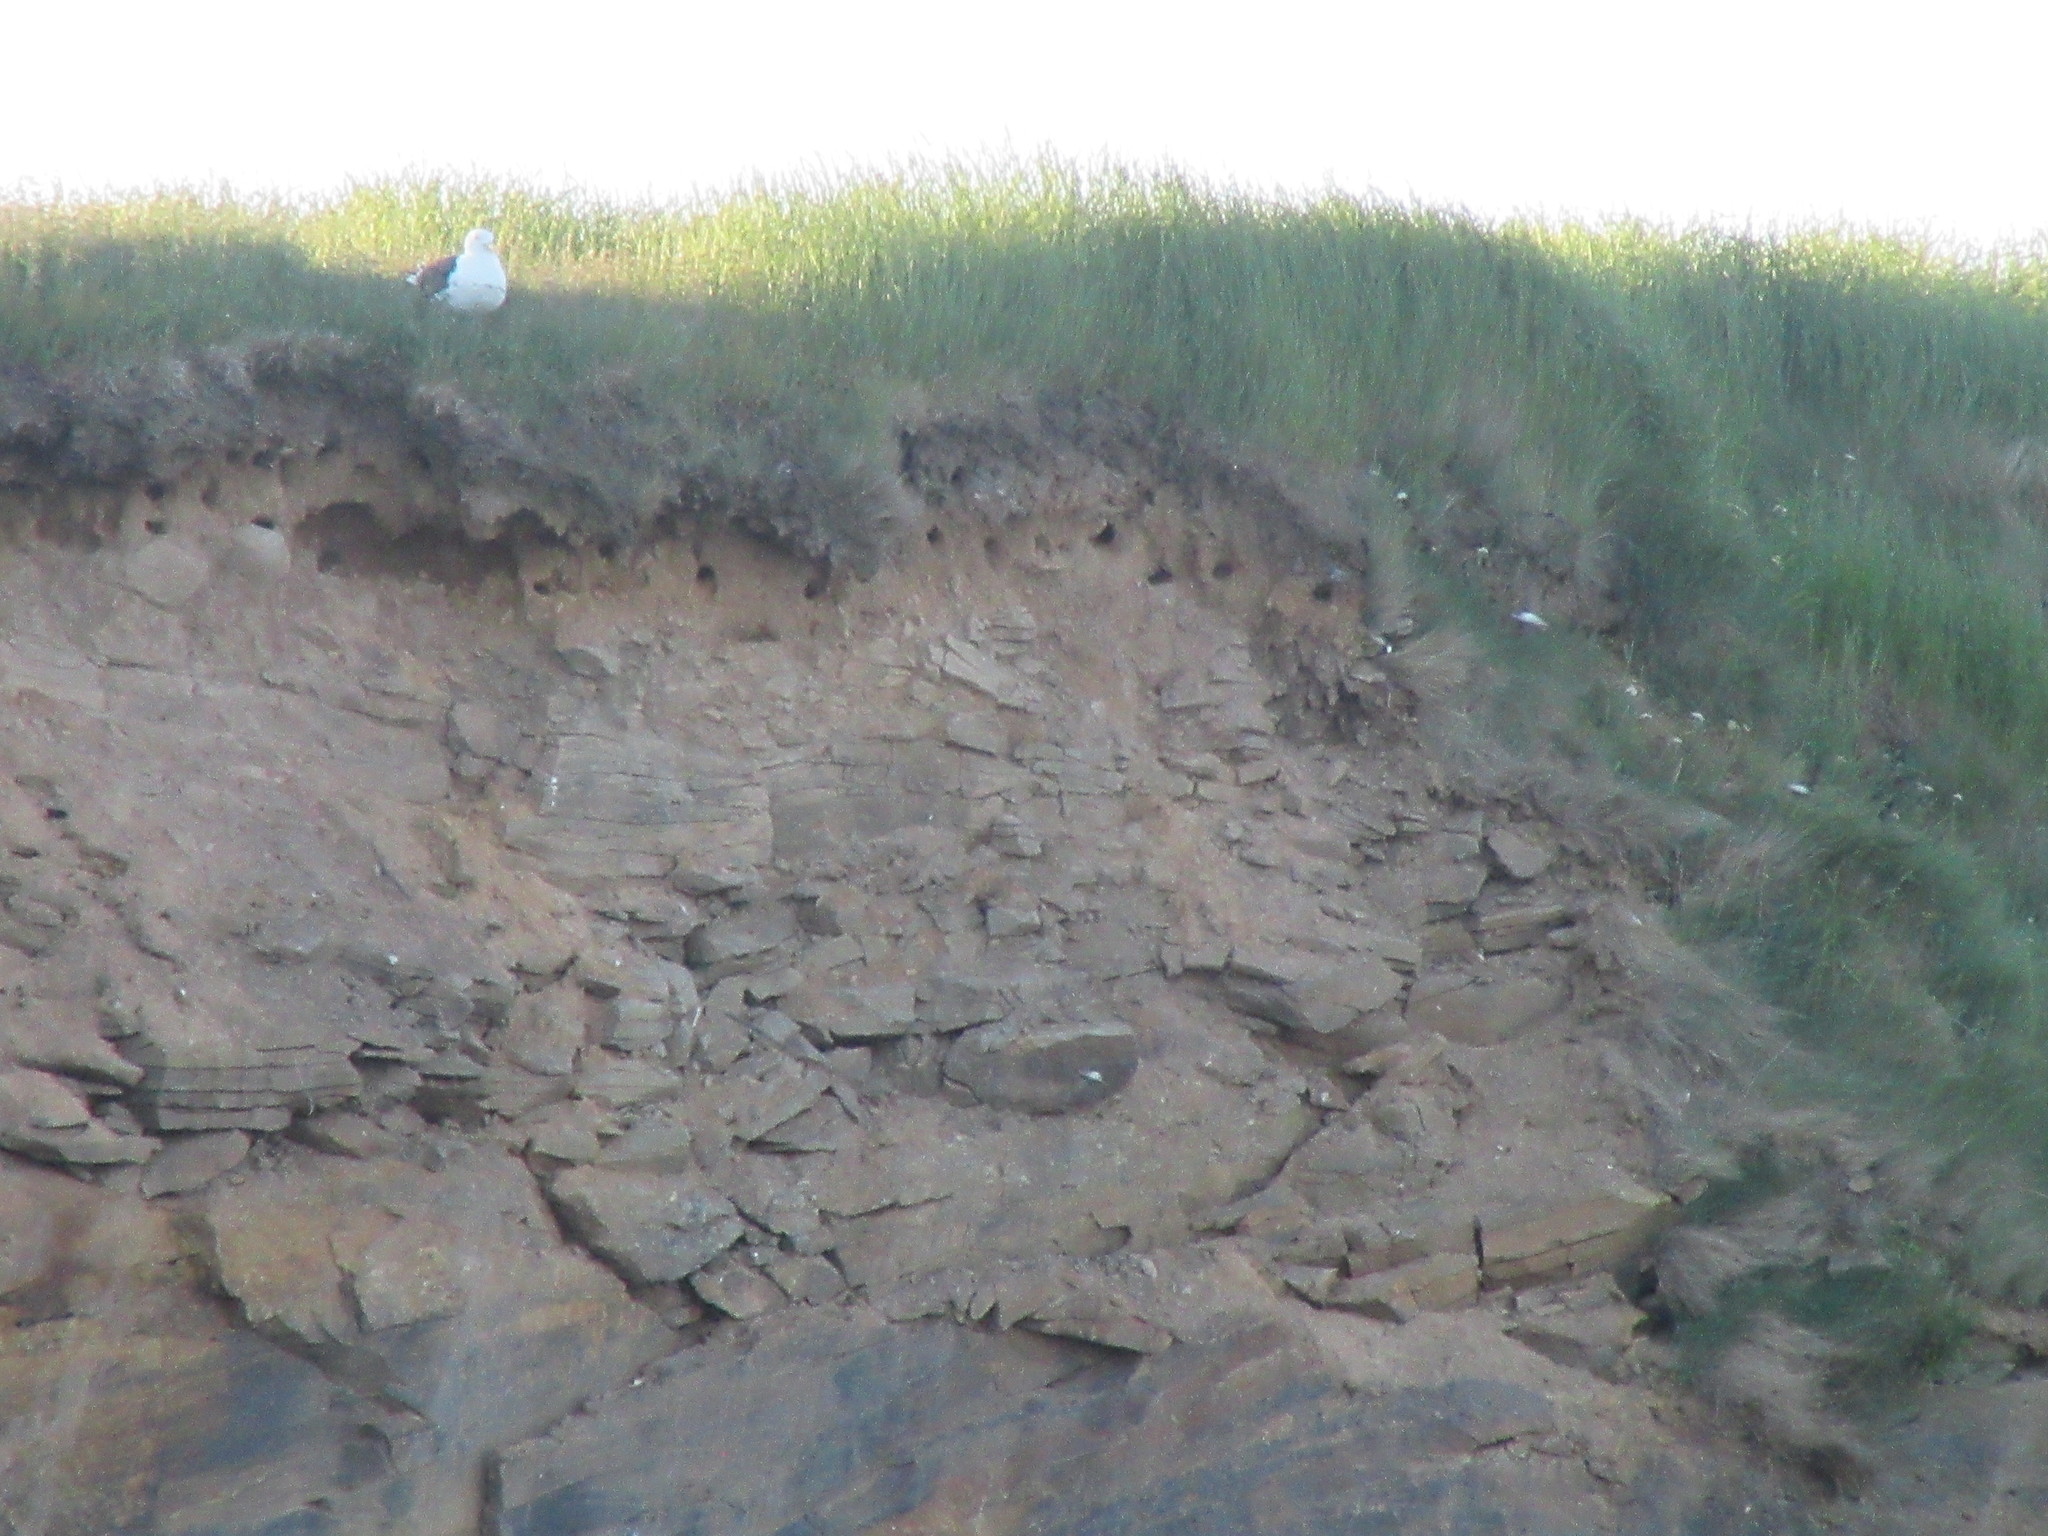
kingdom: Animalia
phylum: Chordata
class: Aves
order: Passeriformes
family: Hirundinidae
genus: Riparia
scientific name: Riparia riparia
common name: Sand martin
